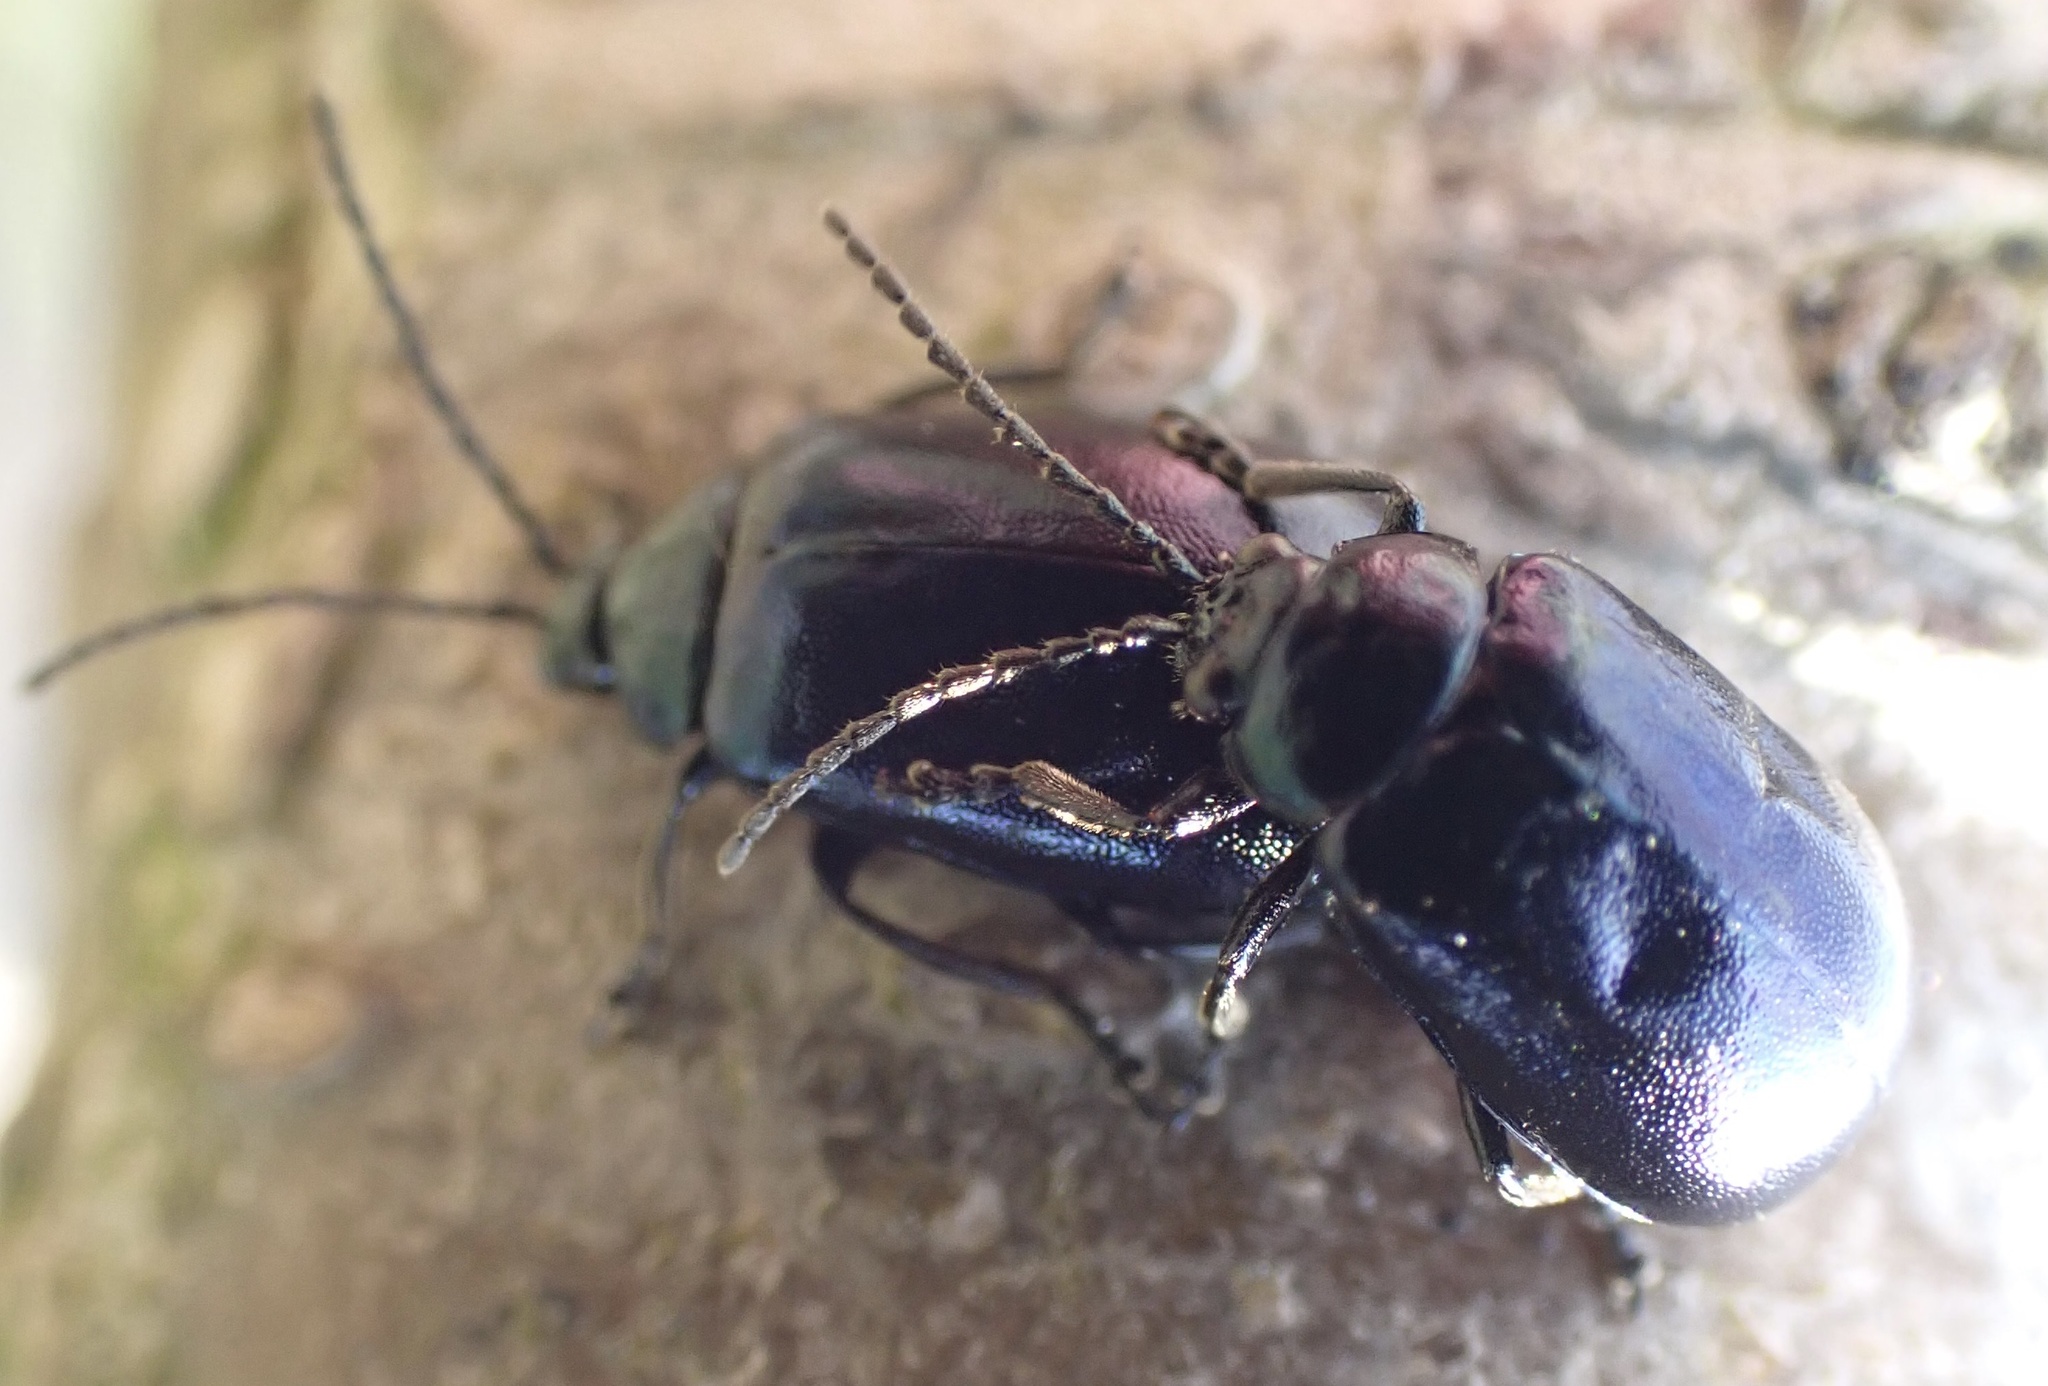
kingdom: Animalia
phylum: Arthropoda
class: Insecta
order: Coleoptera
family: Chrysomelidae
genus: Agelastica
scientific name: Agelastica alni
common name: Alder leaf beetle
